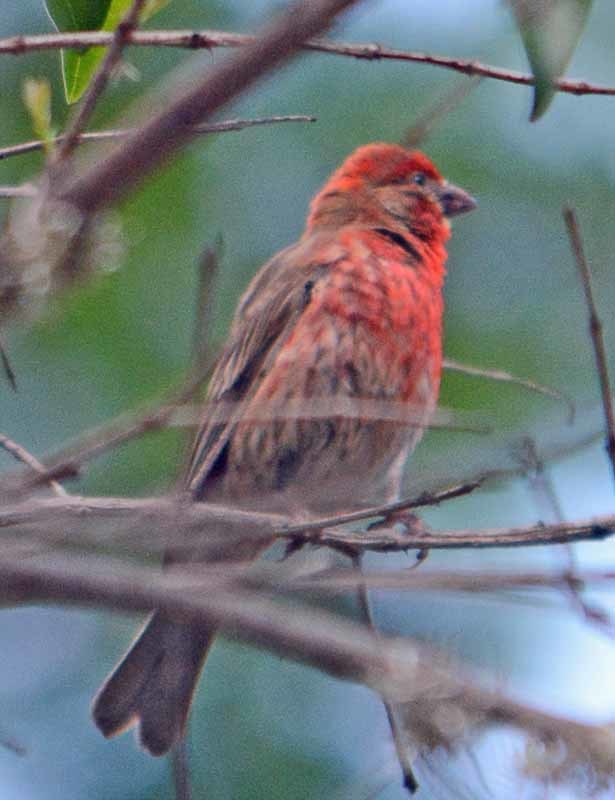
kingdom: Animalia
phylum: Chordata
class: Aves
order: Passeriformes
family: Fringillidae
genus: Haemorhous
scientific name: Haemorhous mexicanus
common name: House finch
